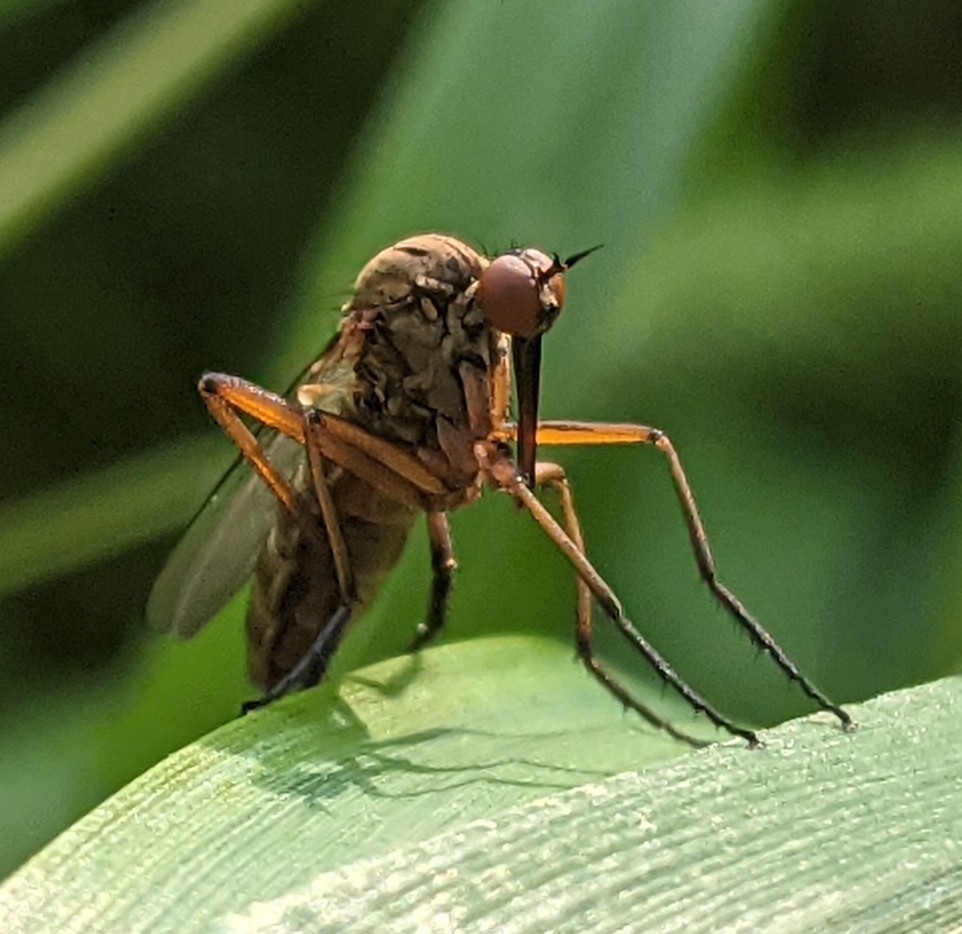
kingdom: Animalia
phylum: Arthropoda
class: Insecta
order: Diptera
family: Empididae
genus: Empis
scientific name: Empis livida
